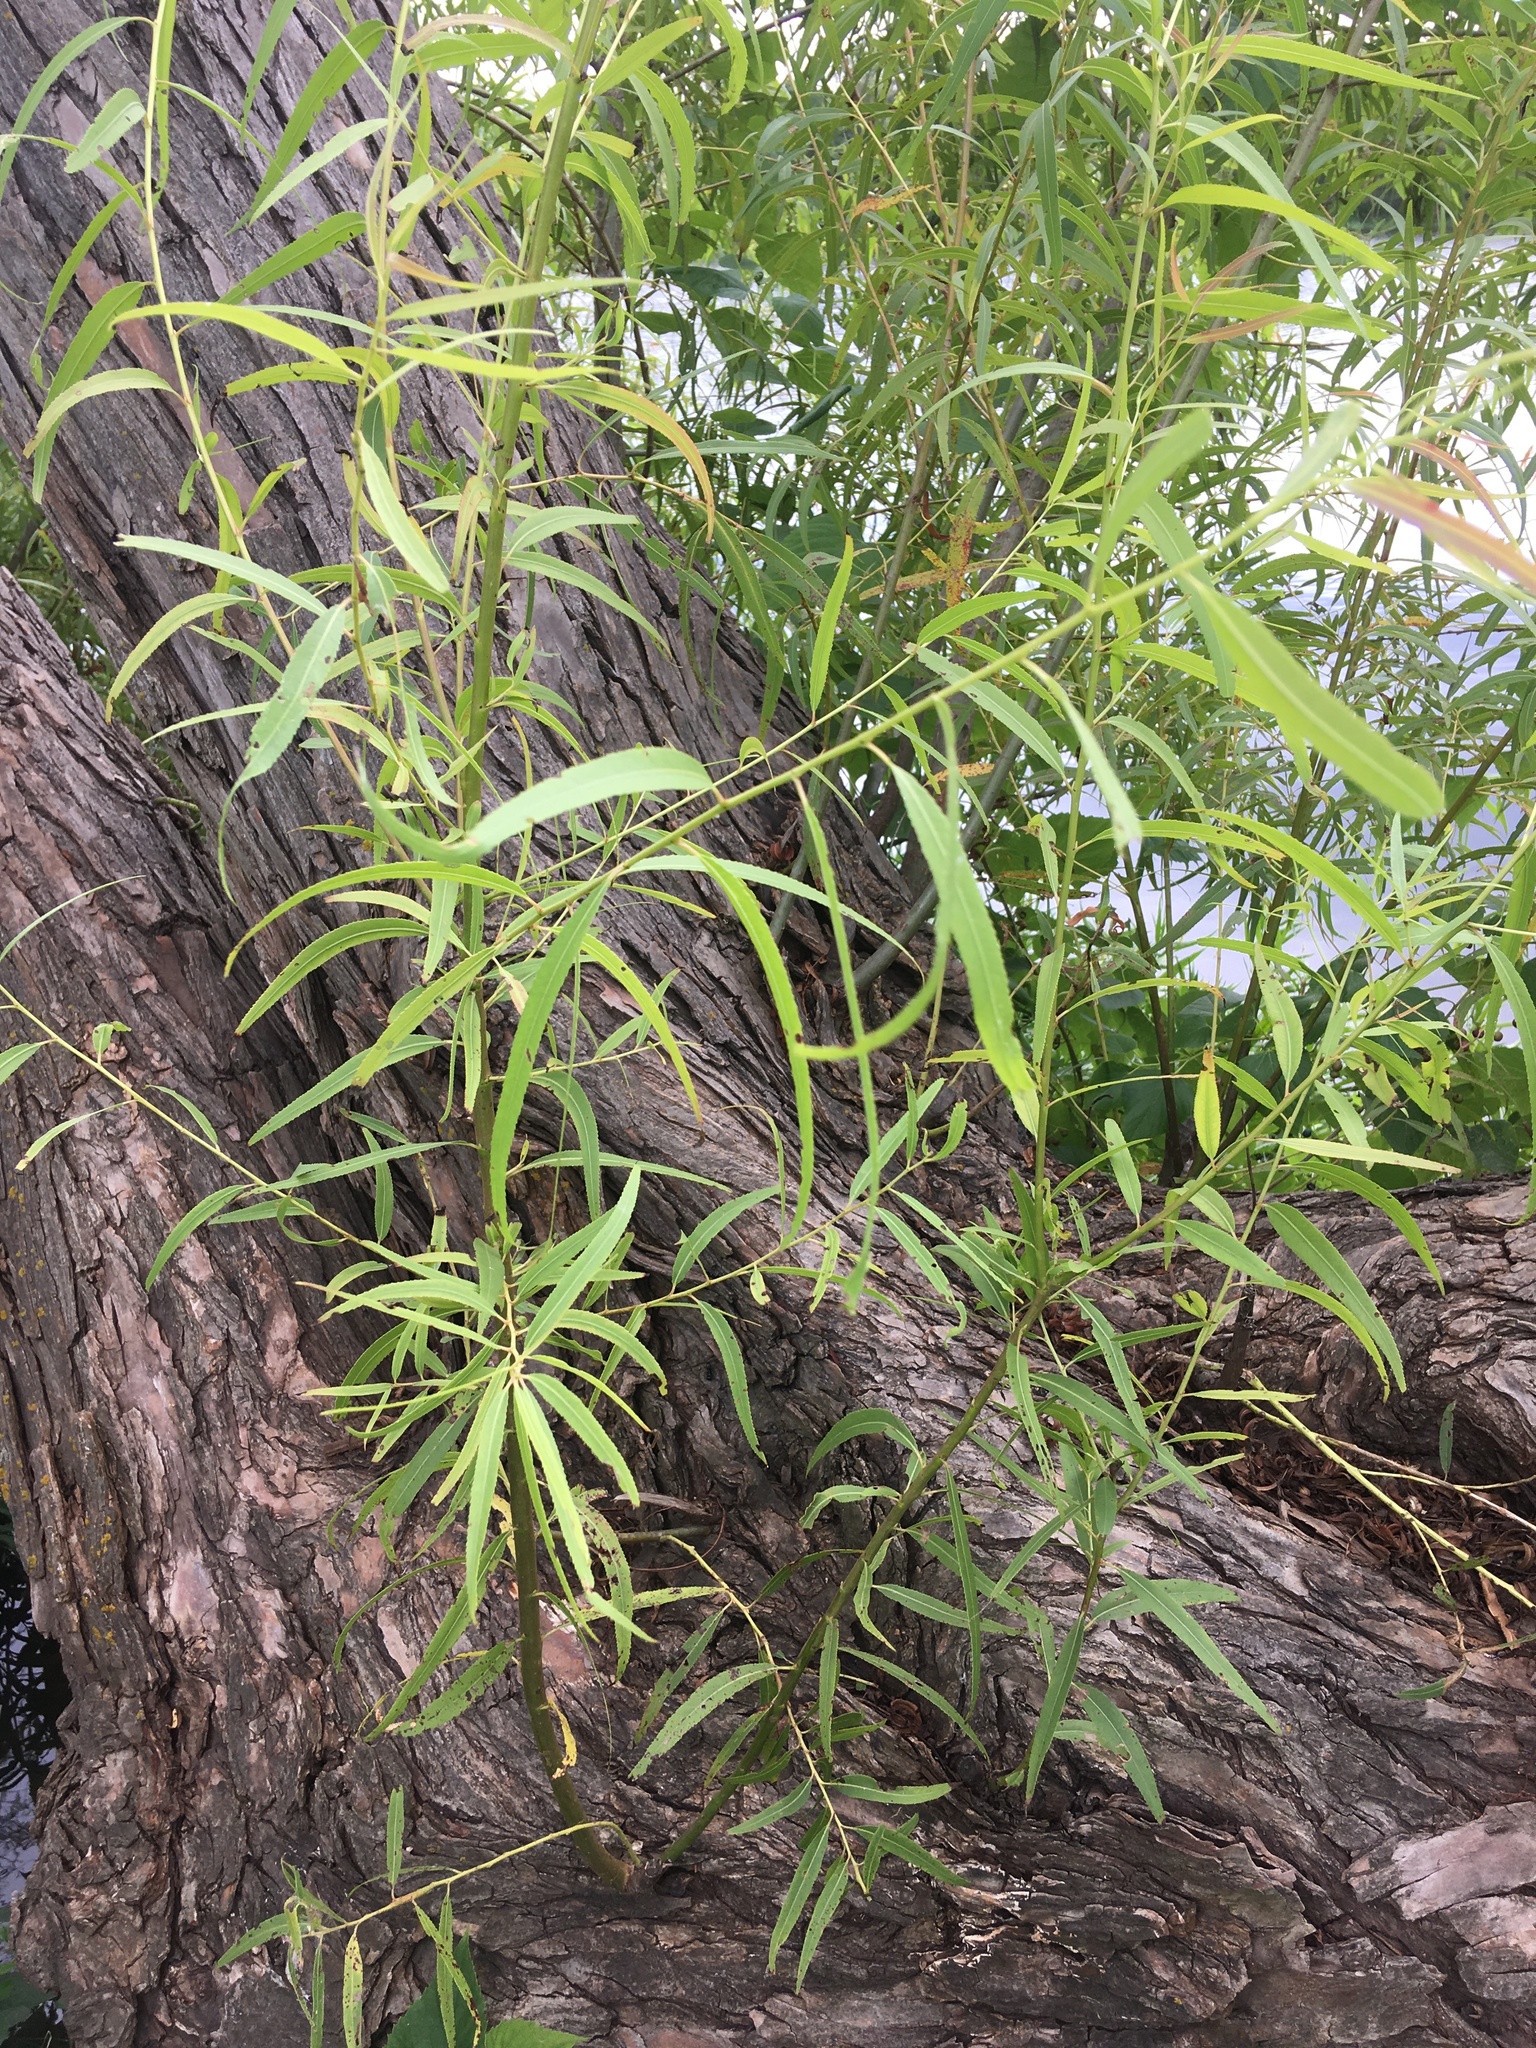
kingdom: Plantae
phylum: Tracheophyta
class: Magnoliopsida
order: Malpighiales
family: Salicaceae
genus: Salix
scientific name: Salix nigra
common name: Black willow
